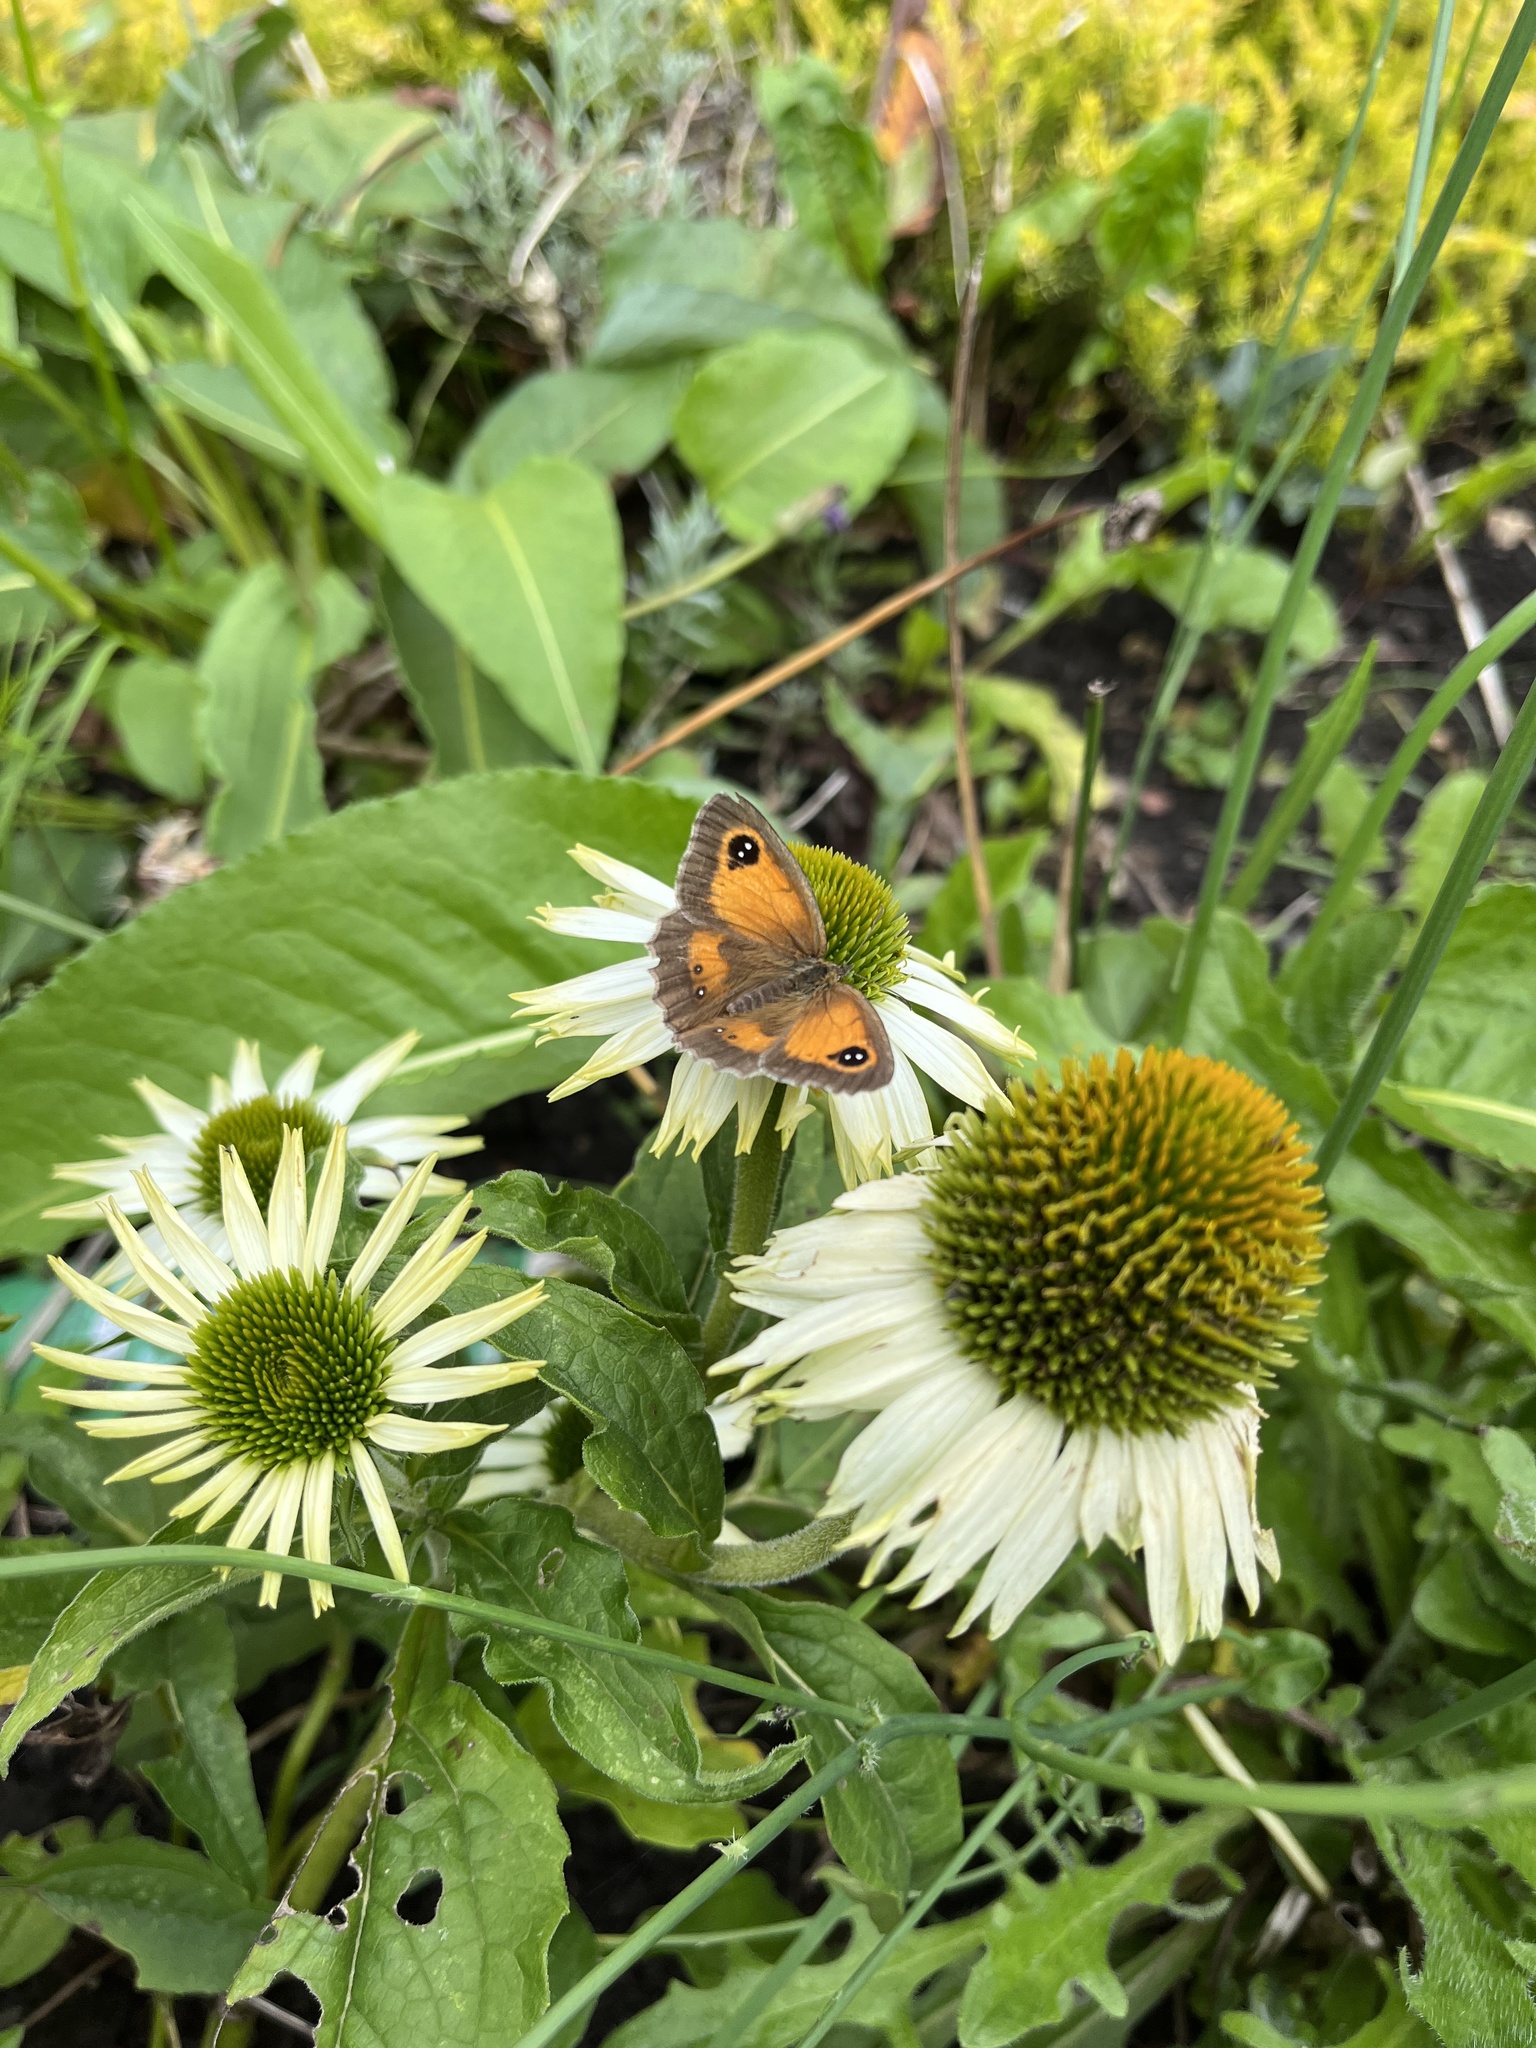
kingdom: Animalia
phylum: Arthropoda
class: Insecta
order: Lepidoptera
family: Nymphalidae
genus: Pyronia
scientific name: Pyronia tithonus
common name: Gatekeeper
